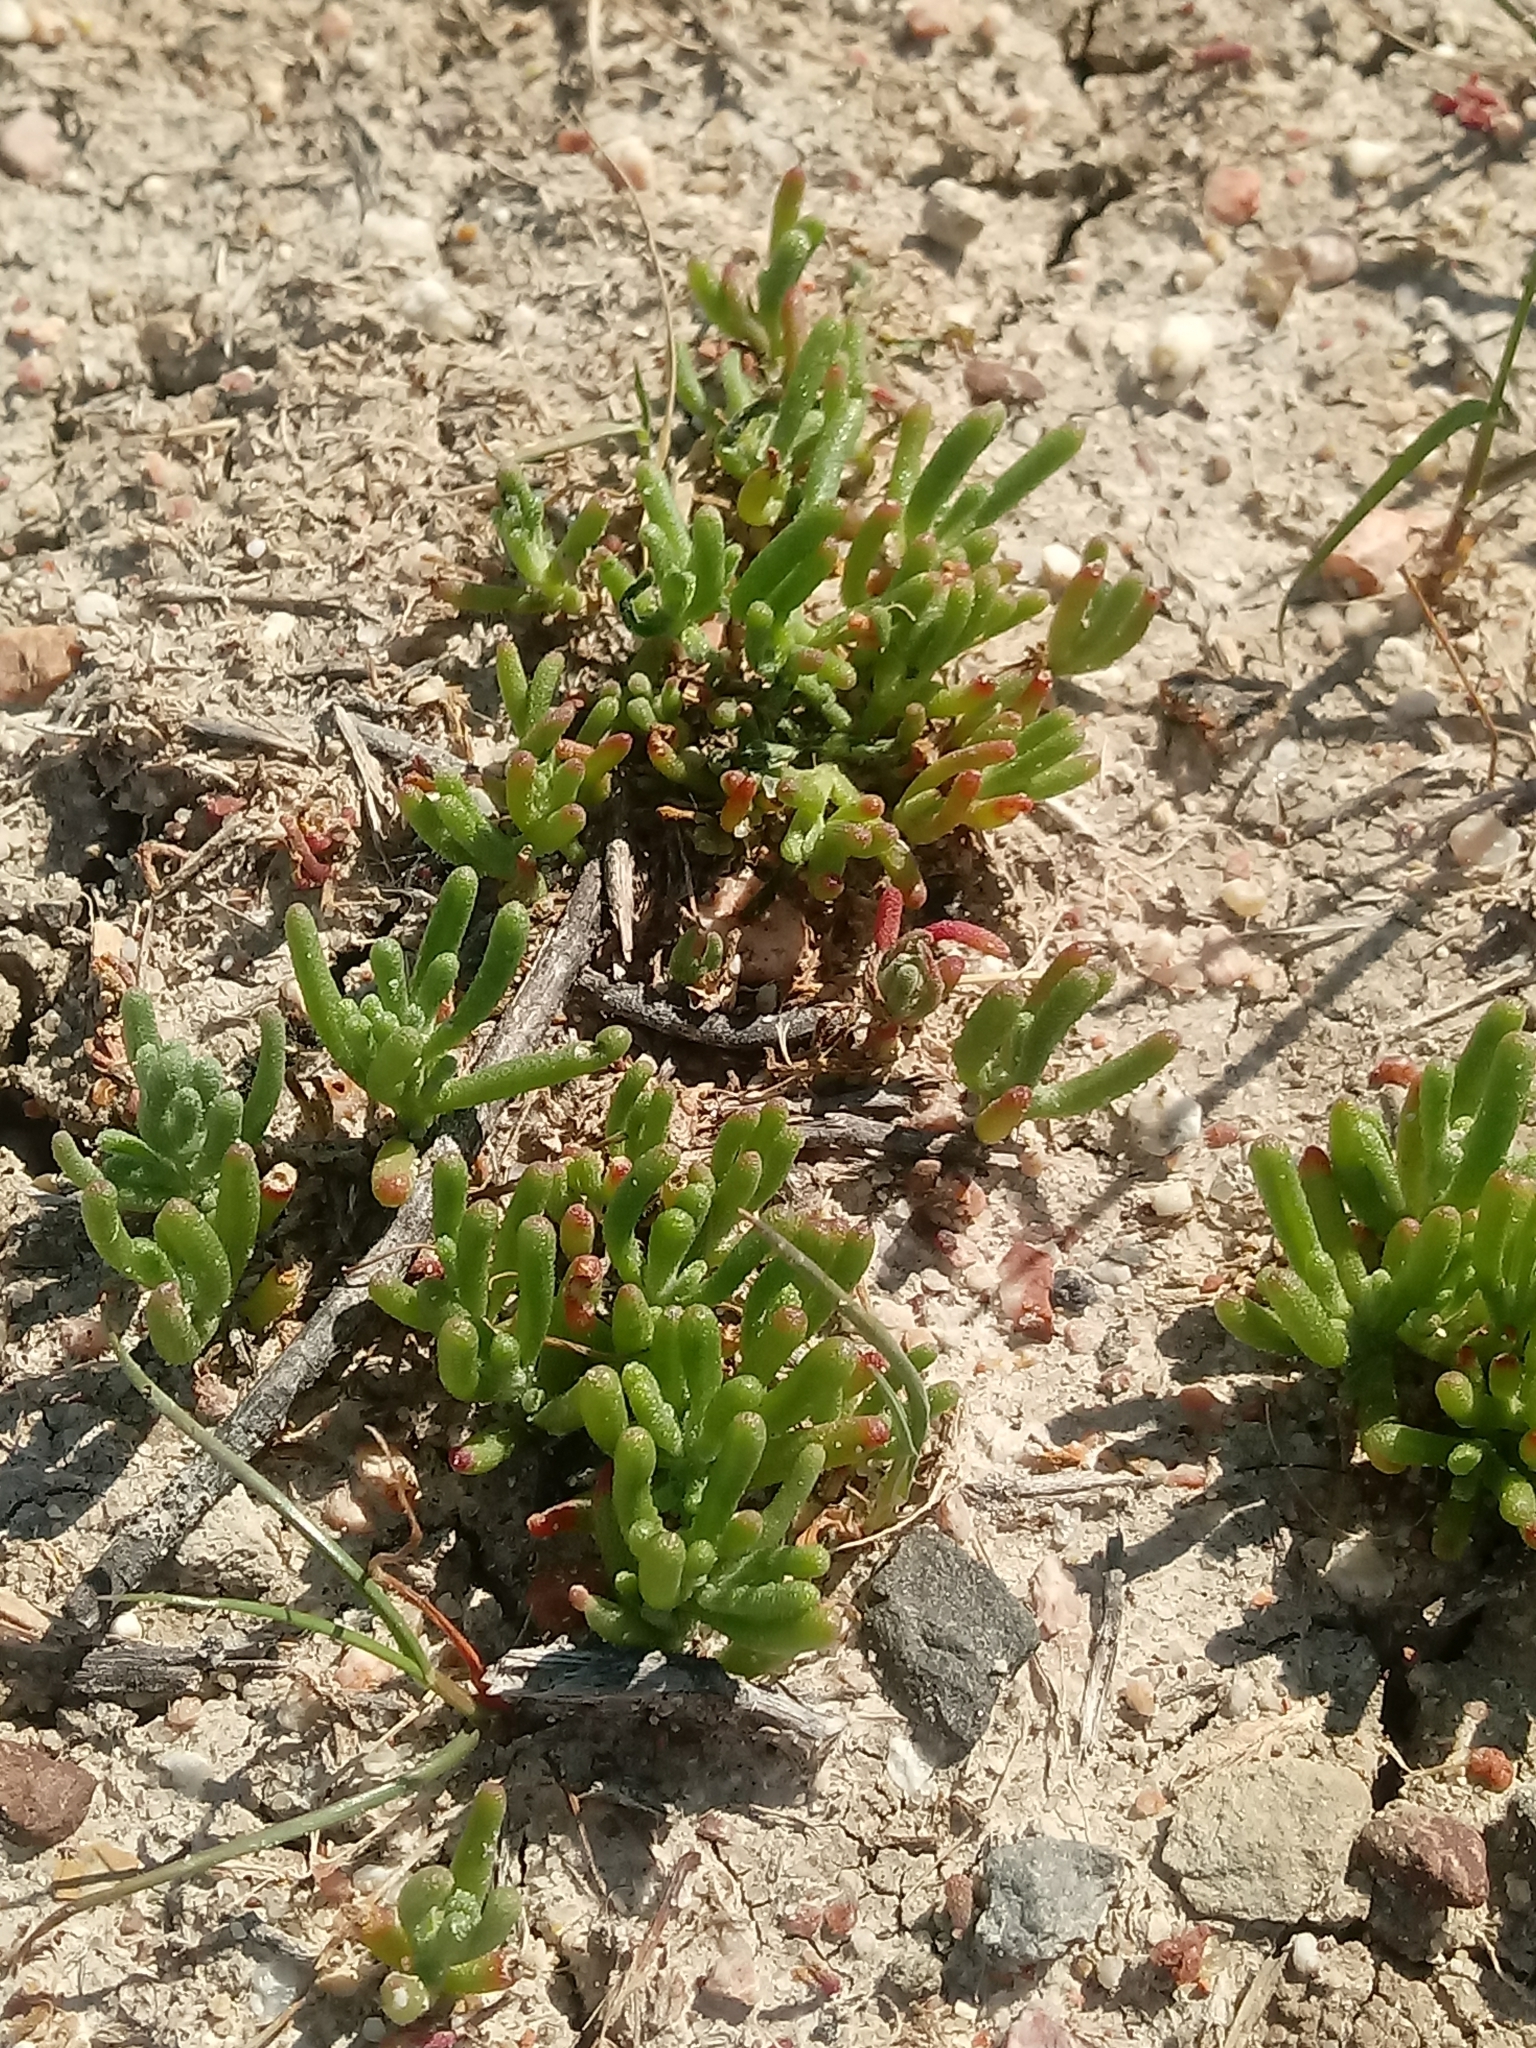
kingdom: Plantae
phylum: Tracheophyta
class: Magnoliopsida
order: Caryophyllales
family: Aizoaceae
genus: Mesembryanthemum
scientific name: Mesembryanthemum nodiflorum
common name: Slenderleaf iceplant
